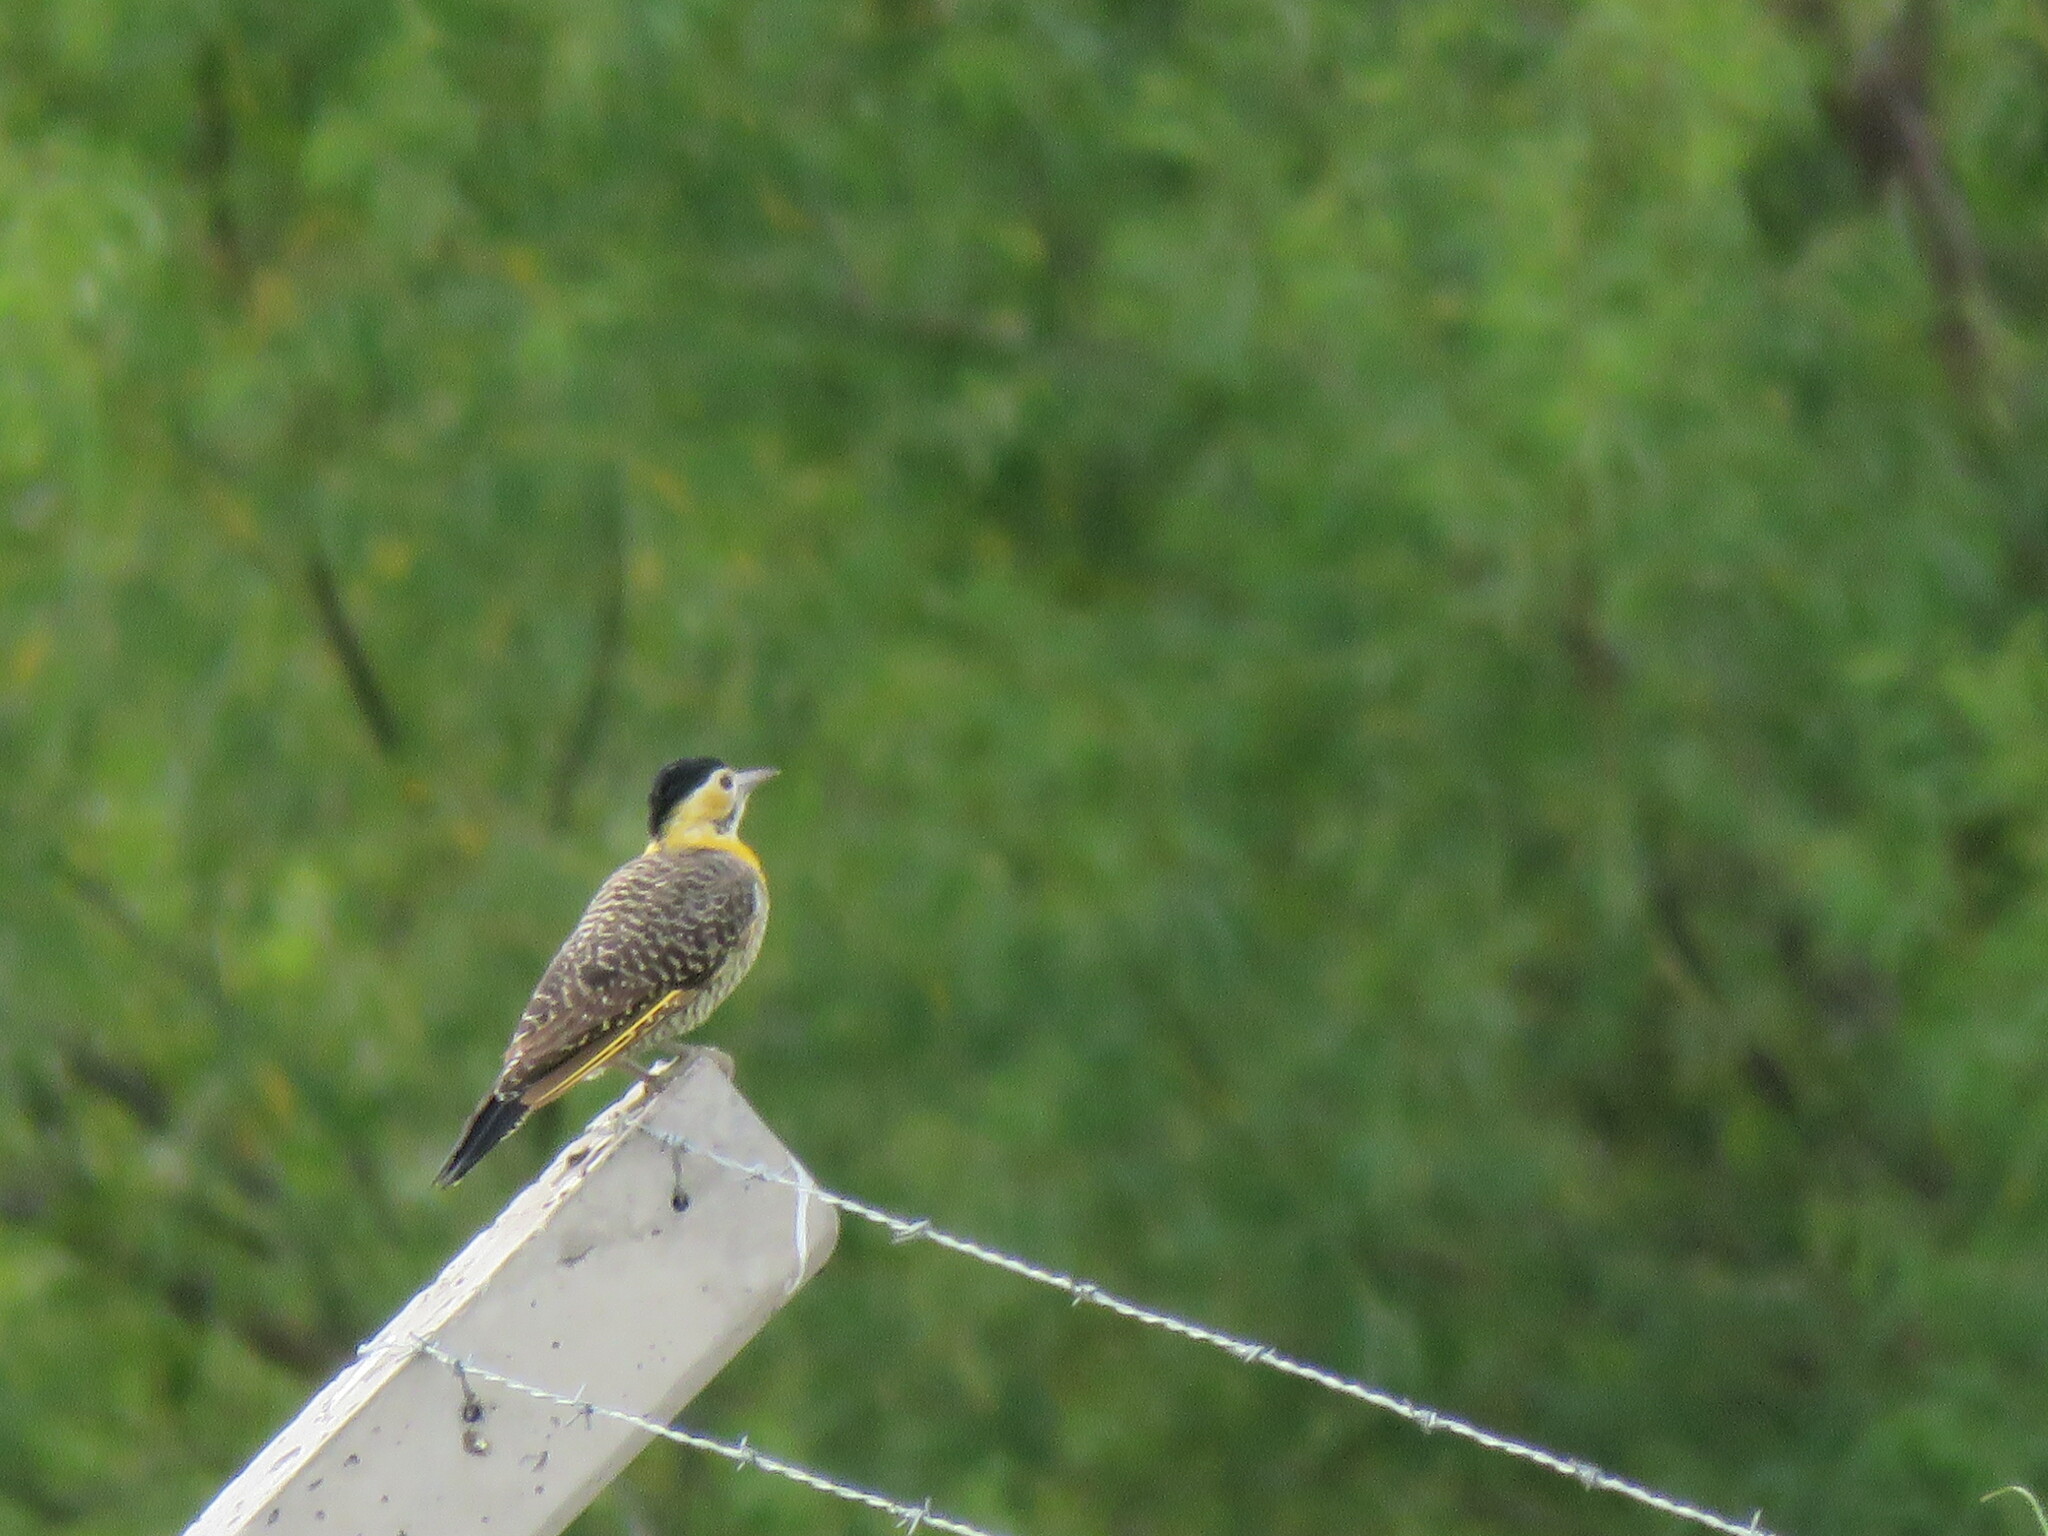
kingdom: Animalia
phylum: Chordata
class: Aves
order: Piciformes
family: Picidae
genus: Colaptes
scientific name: Colaptes campestris
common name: Campo flicker
